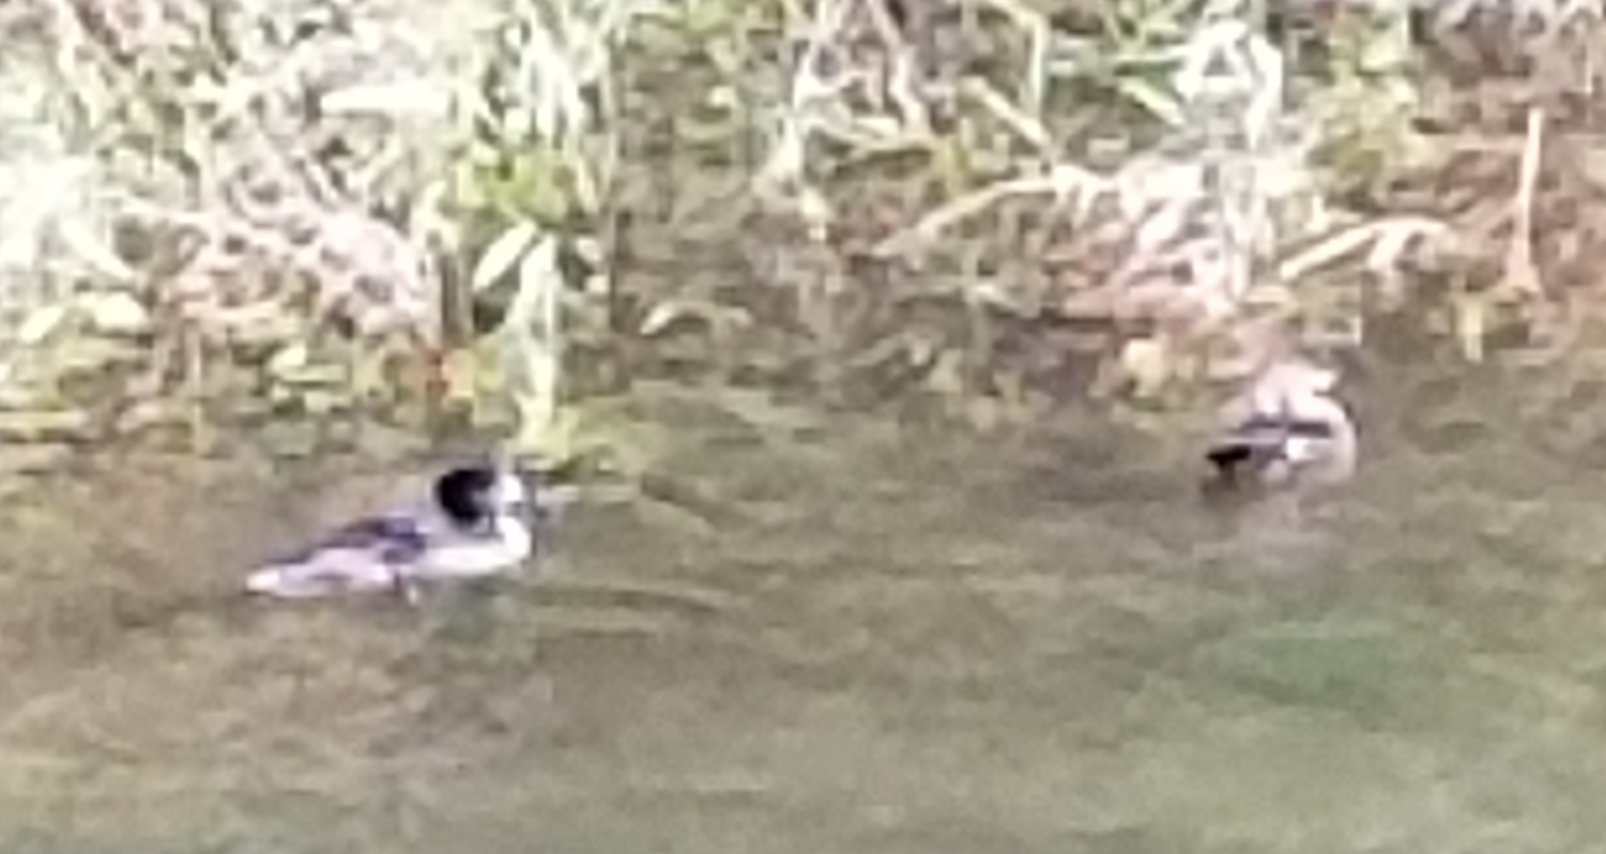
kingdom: Animalia
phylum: Chordata
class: Aves
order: Anseriformes
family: Anatidae
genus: Lophodytes
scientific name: Lophodytes cucullatus
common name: Hooded merganser
